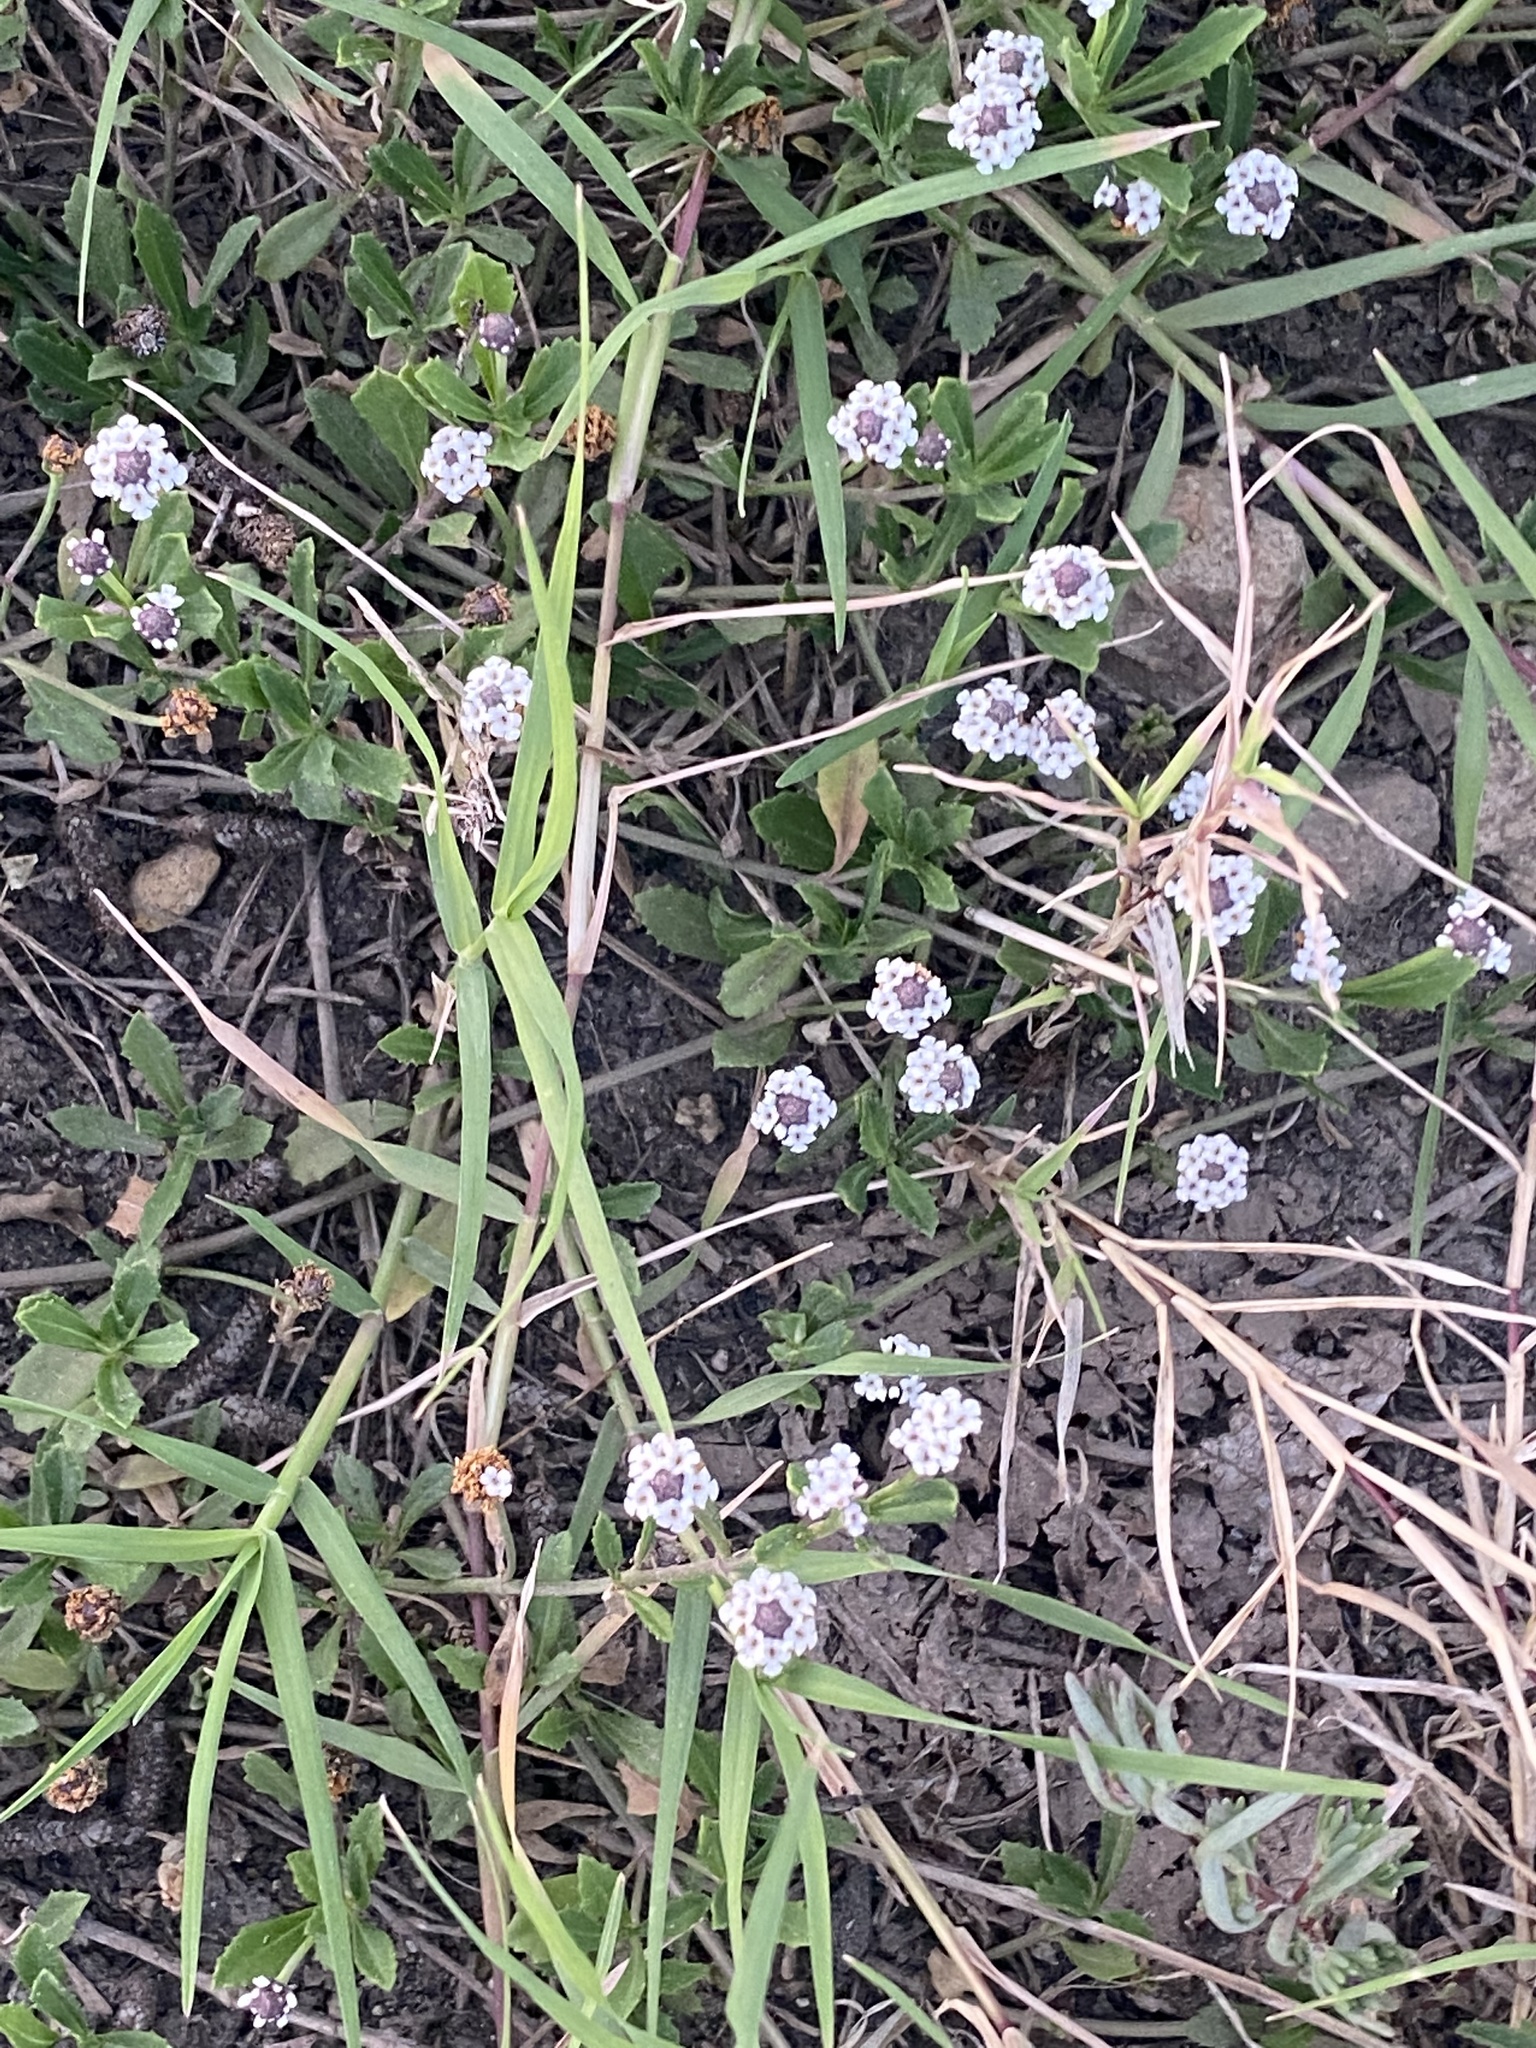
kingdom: Plantae
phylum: Tracheophyta
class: Magnoliopsida
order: Lamiales
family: Verbenaceae
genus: Phyla
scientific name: Phyla nodiflora
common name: Frogfruit
